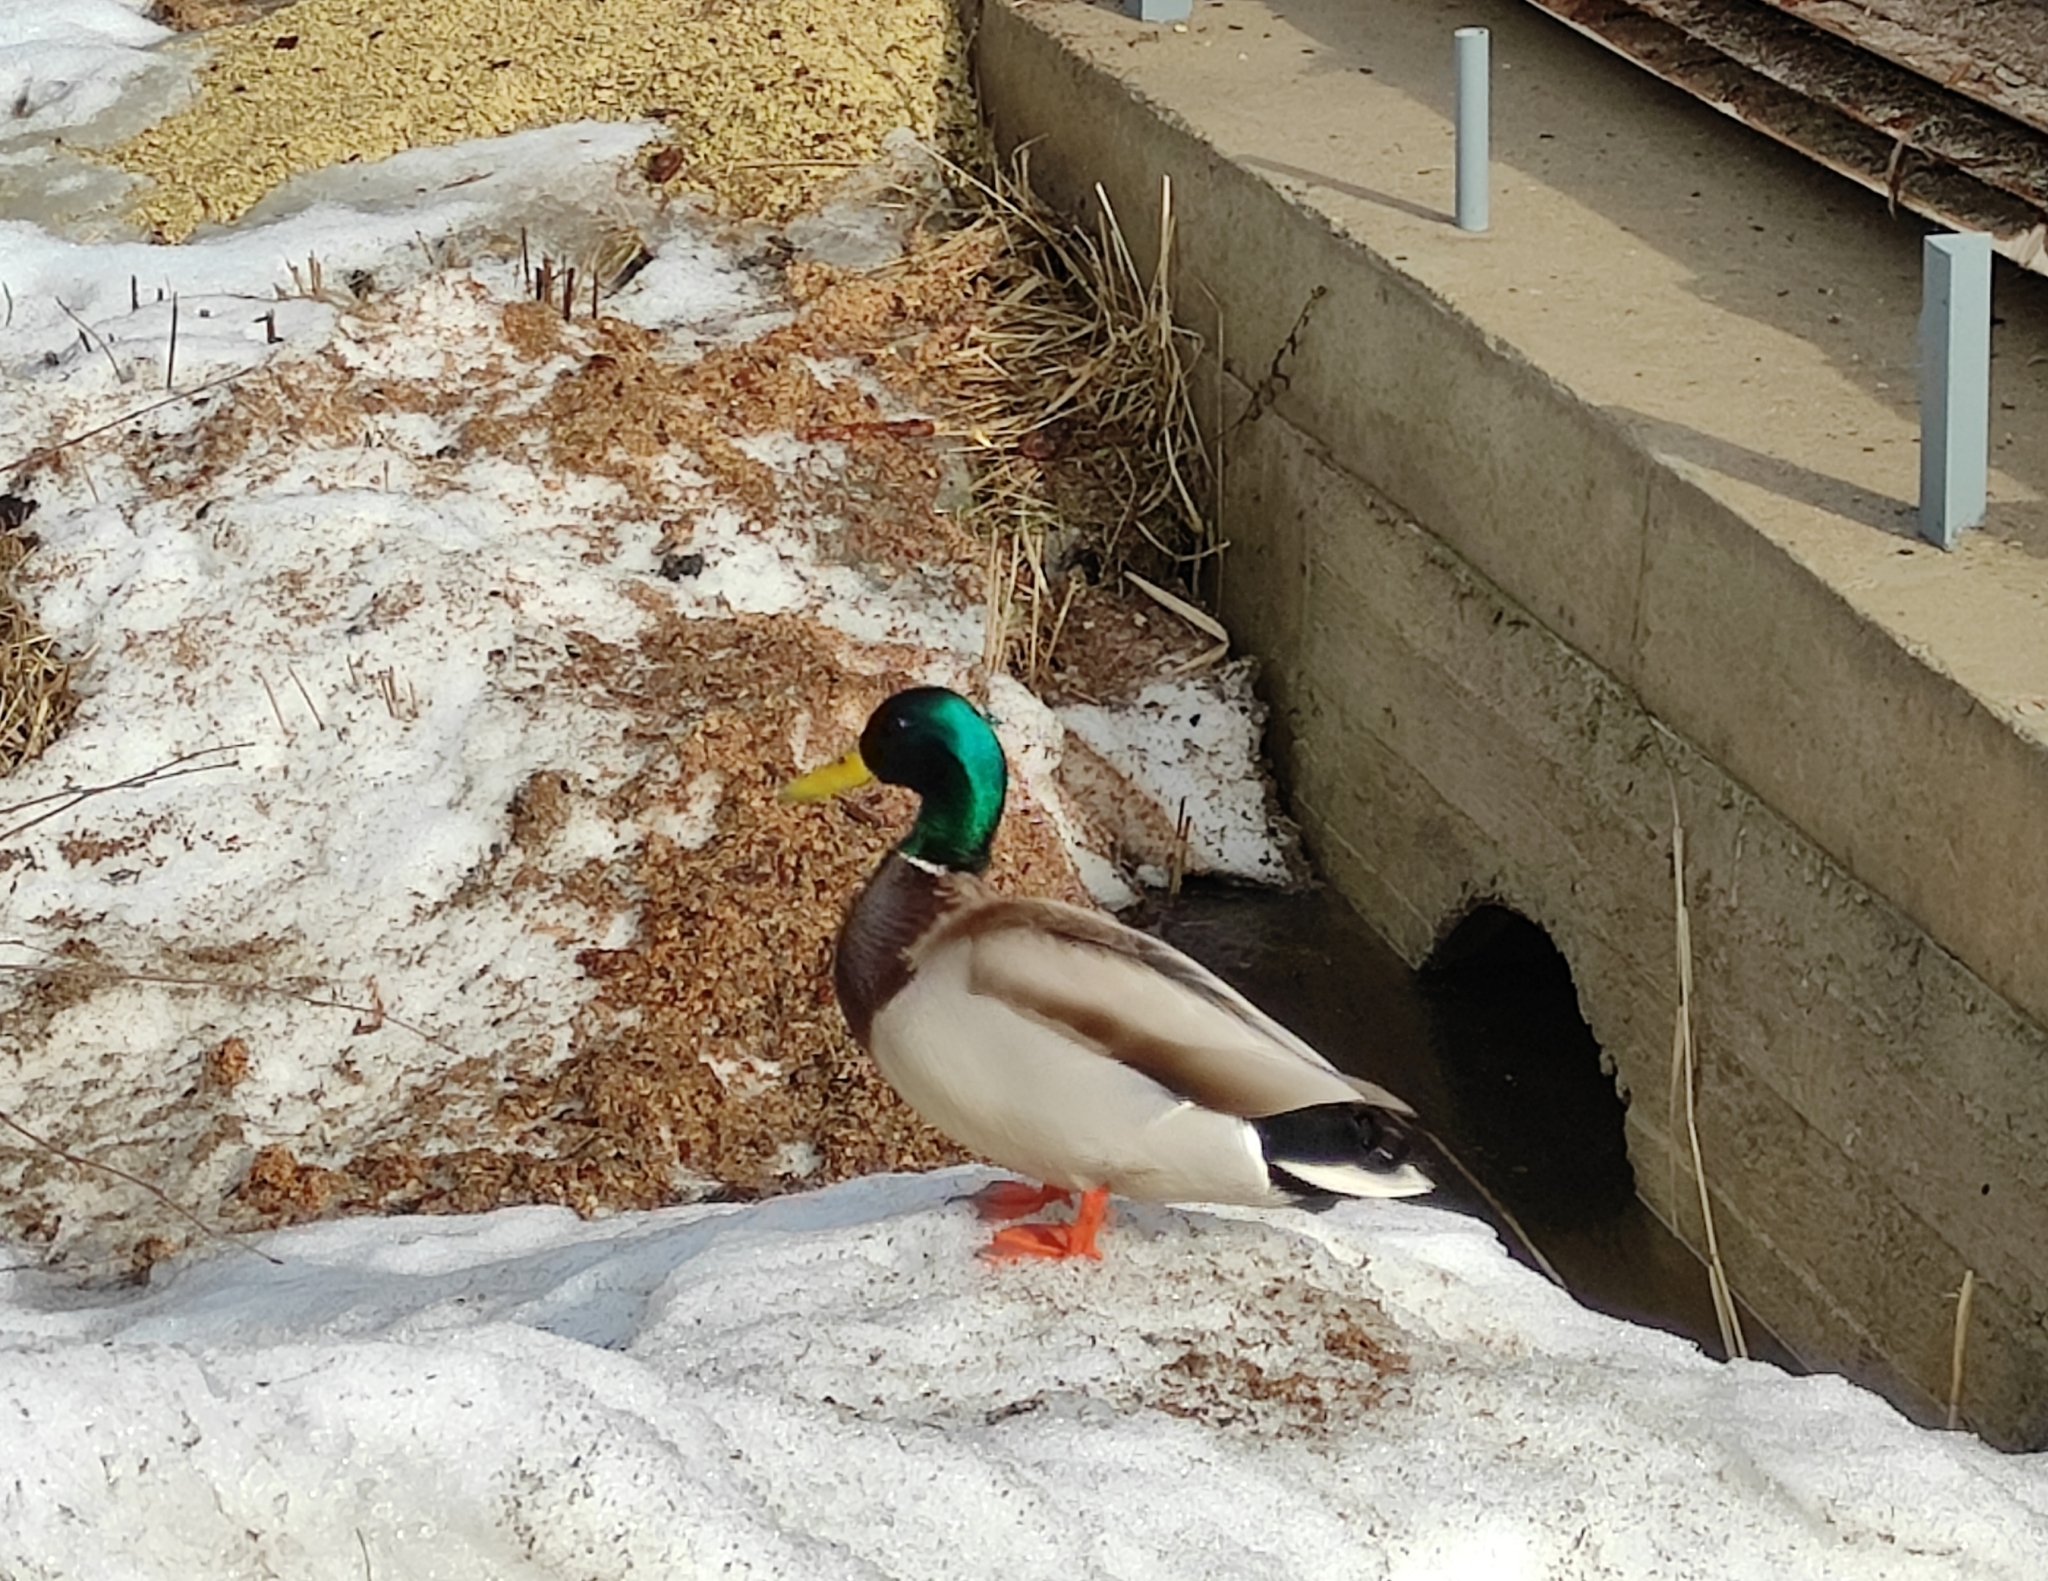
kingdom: Animalia
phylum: Chordata
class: Aves
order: Anseriformes
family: Anatidae
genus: Anas
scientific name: Anas platyrhynchos
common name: Mallard
